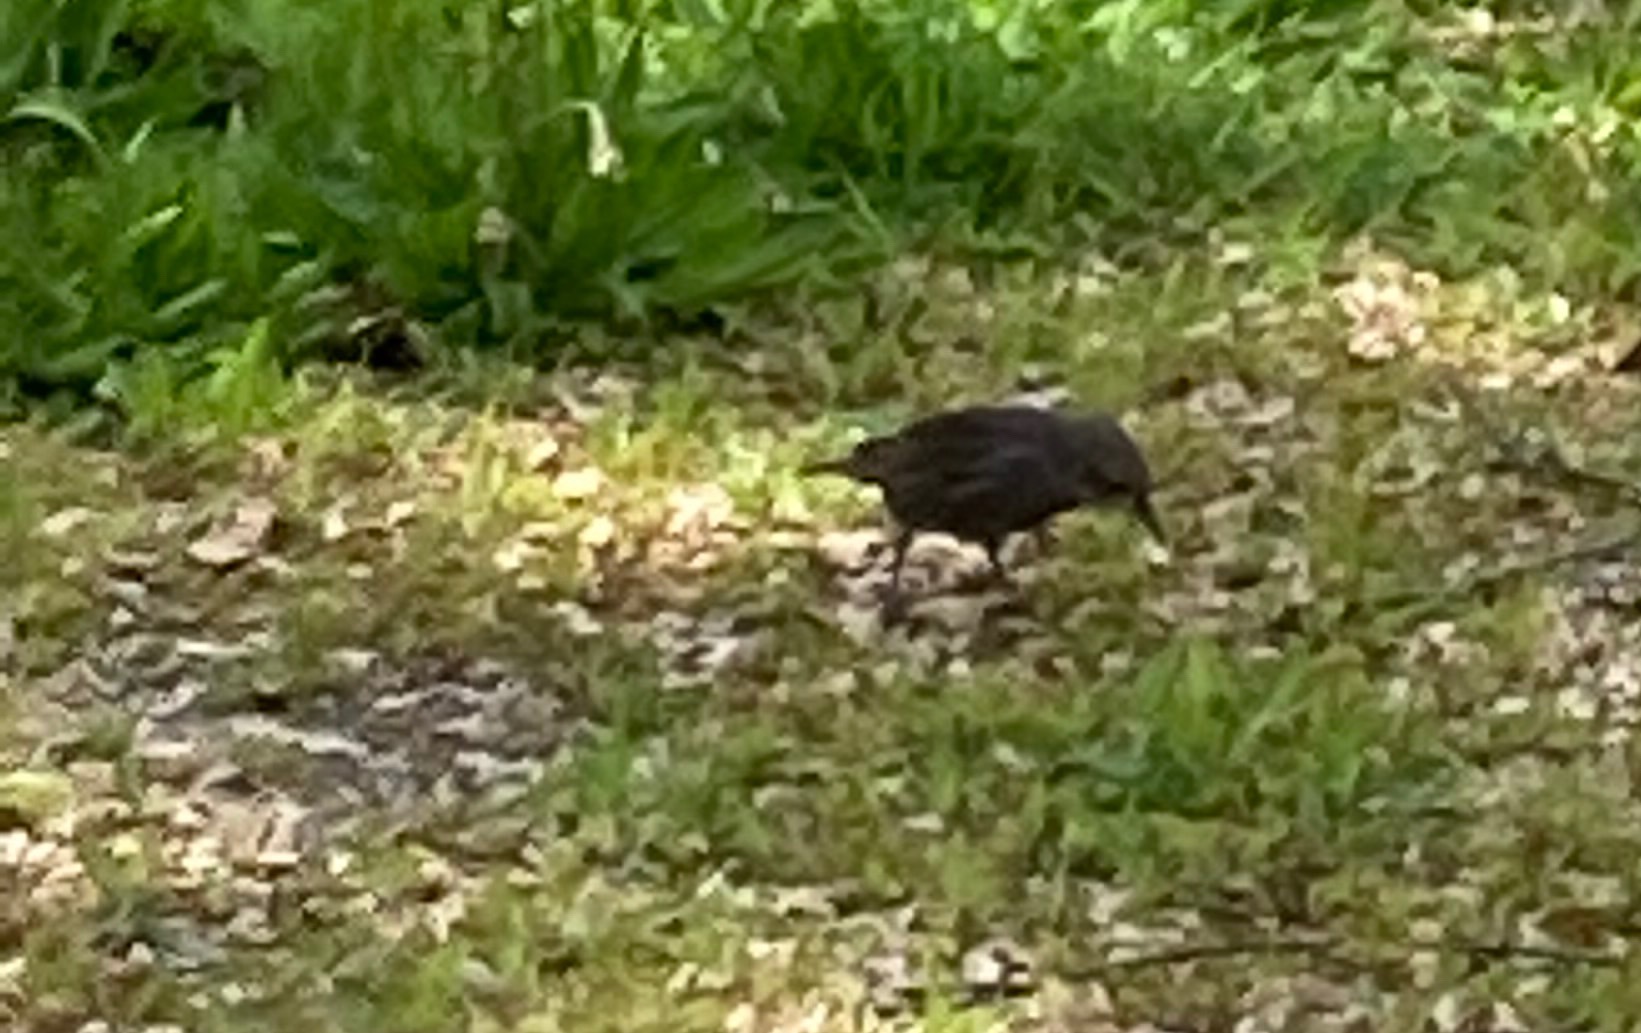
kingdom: Animalia
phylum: Chordata
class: Aves
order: Passeriformes
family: Sturnidae
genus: Sturnus
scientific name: Sturnus vulgaris
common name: Common starling
